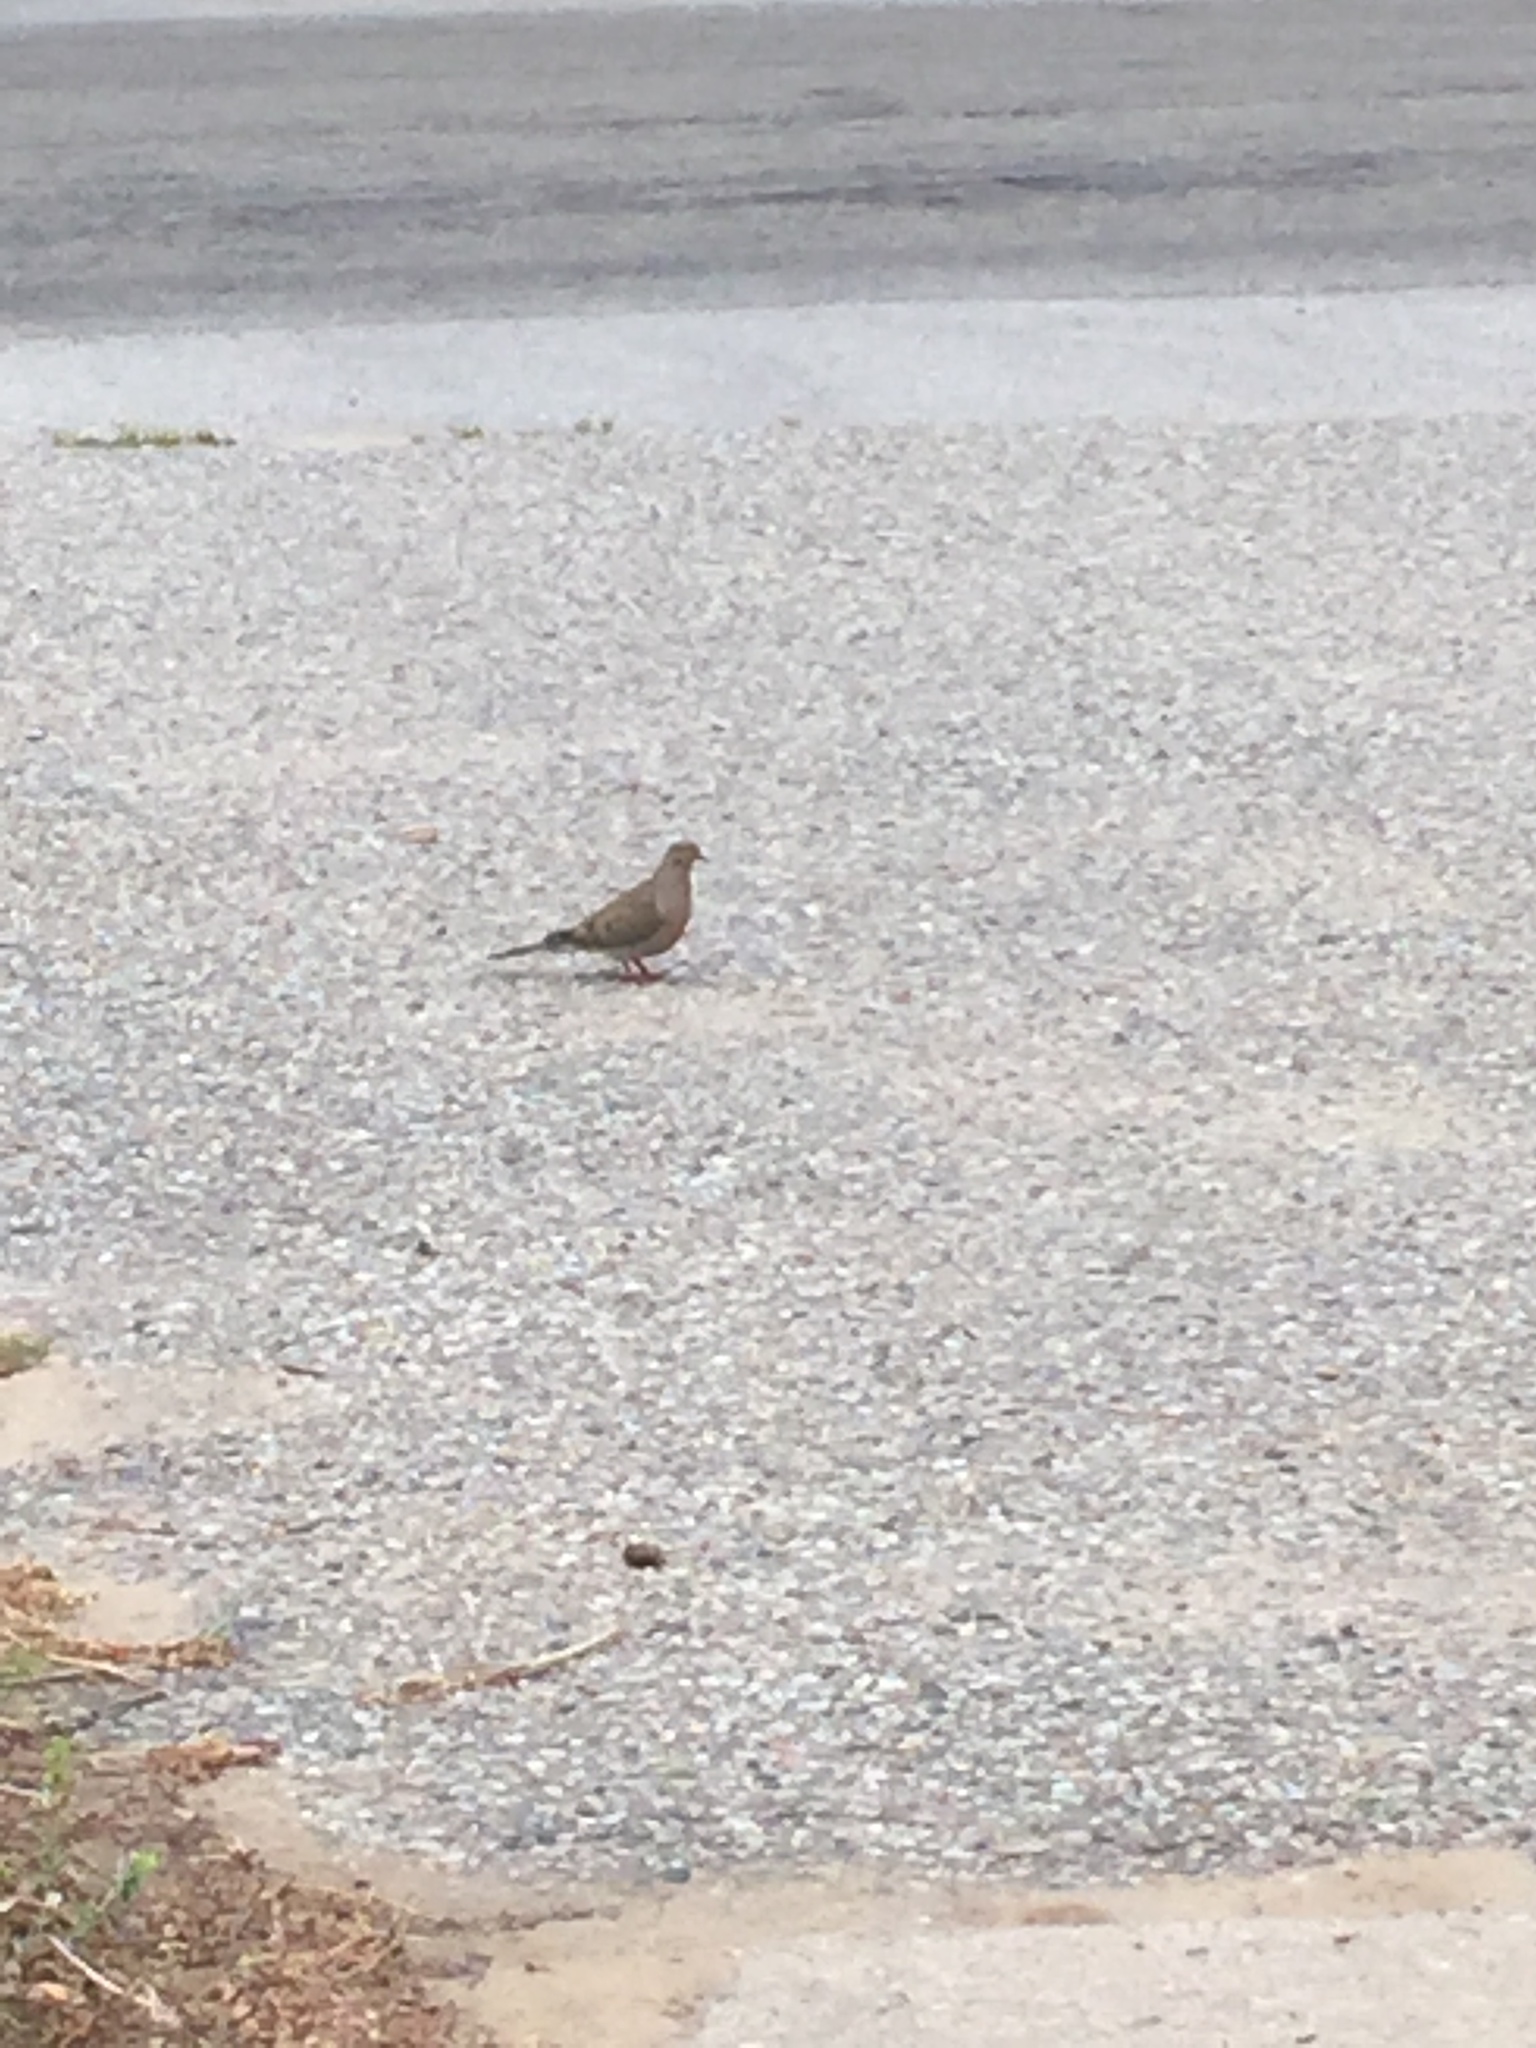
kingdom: Animalia
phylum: Chordata
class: Aves
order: Columbiformes
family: Columbidae
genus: Zenaida
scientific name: Zenaida macroura
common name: Mourning dove
